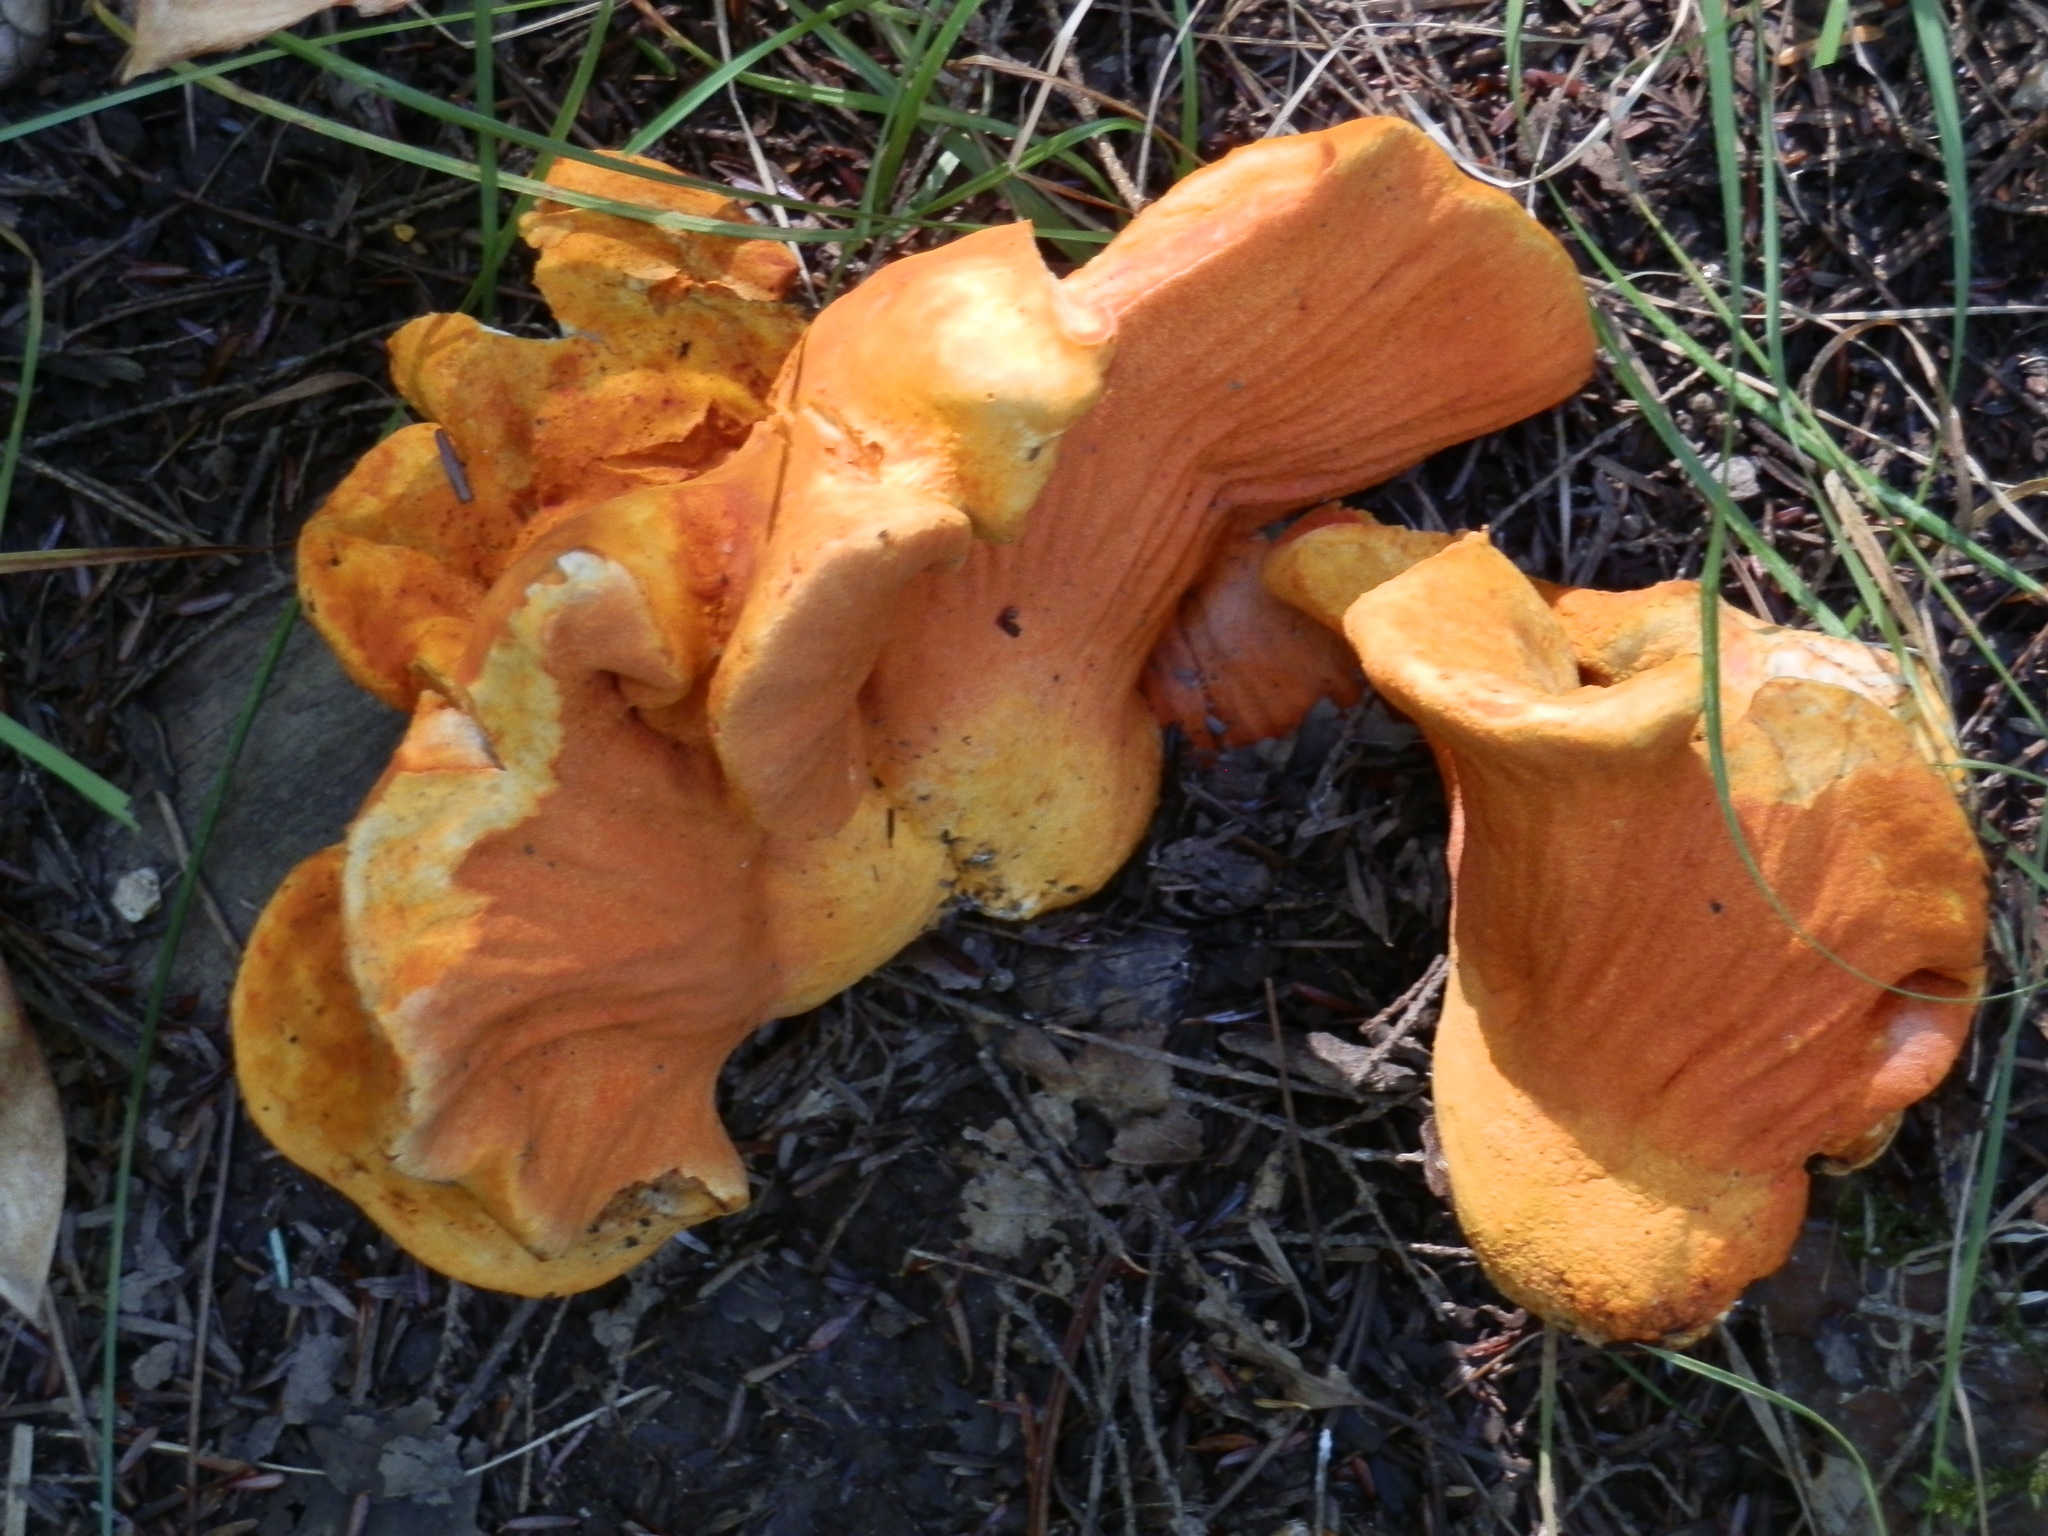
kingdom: Fungi
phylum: Ascomycota
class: Sordariomycetes
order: Hypocreales
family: Hypocreaceae
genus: Hypomyces
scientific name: Hypomyces lactifluorum
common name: Lobster mushroom
